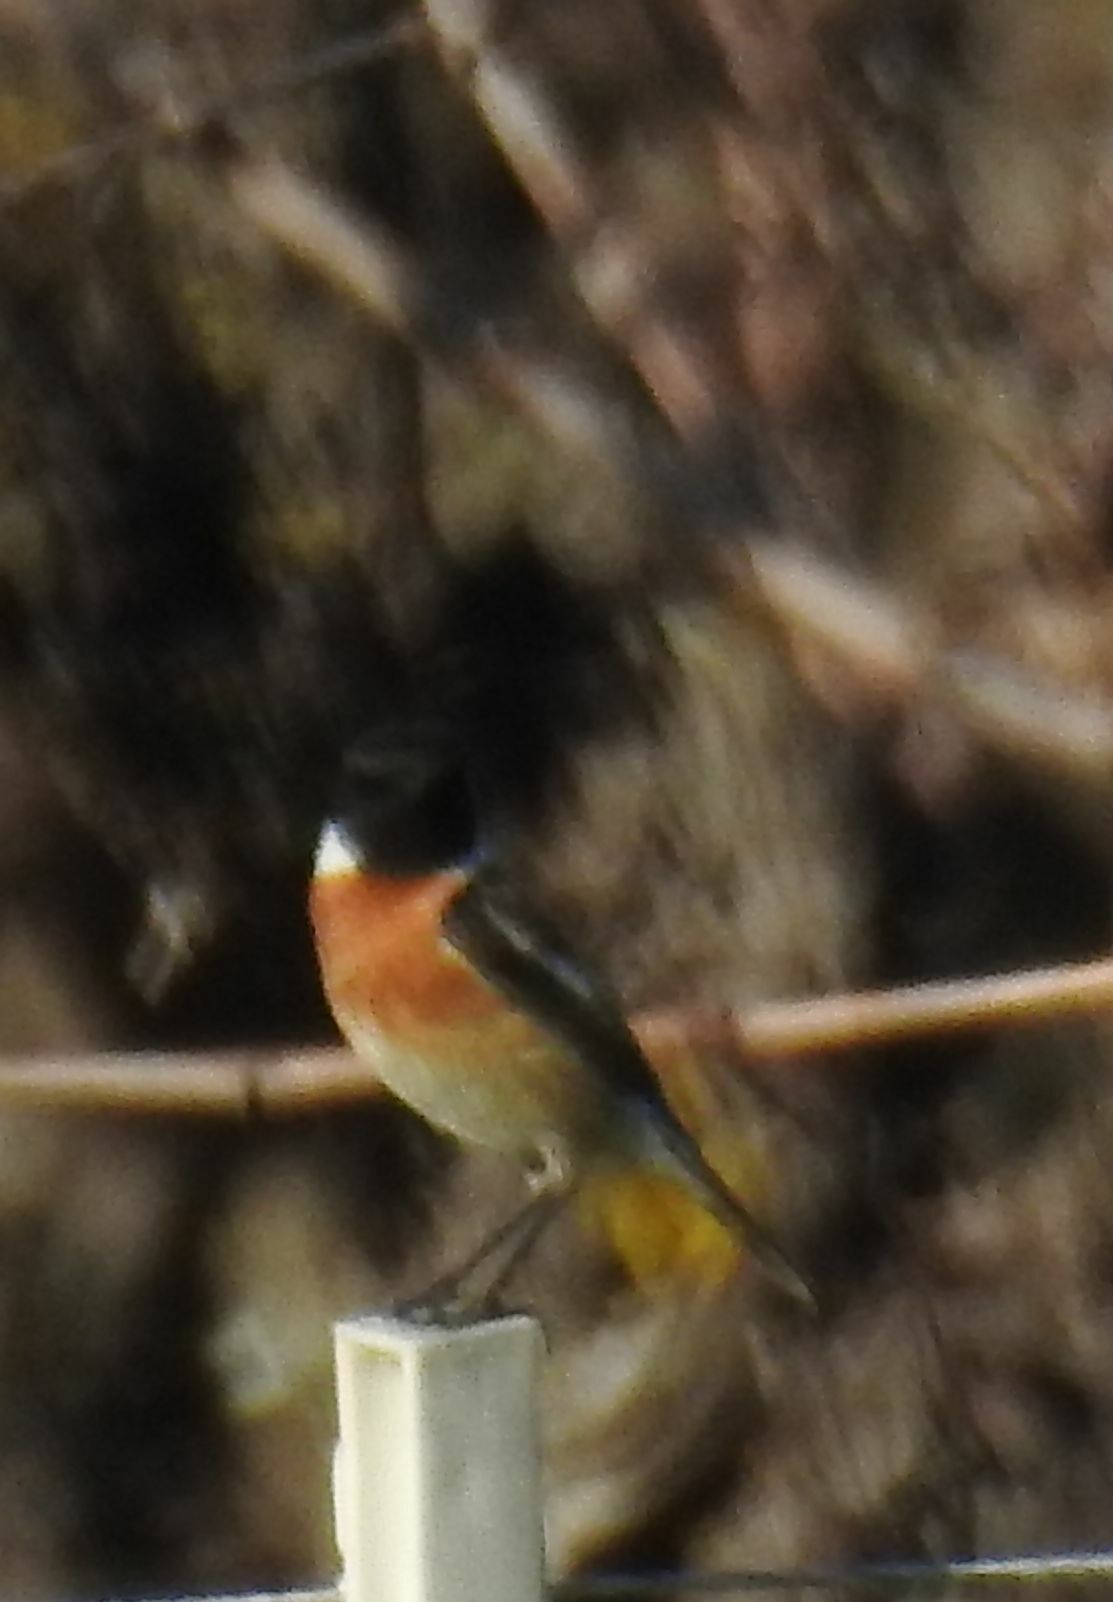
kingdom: Animalia
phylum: Chordata
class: Aves
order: Passeriformes
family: Muscicapidae
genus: Saxicola
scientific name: Saxicola rubicola
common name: European stonechat
